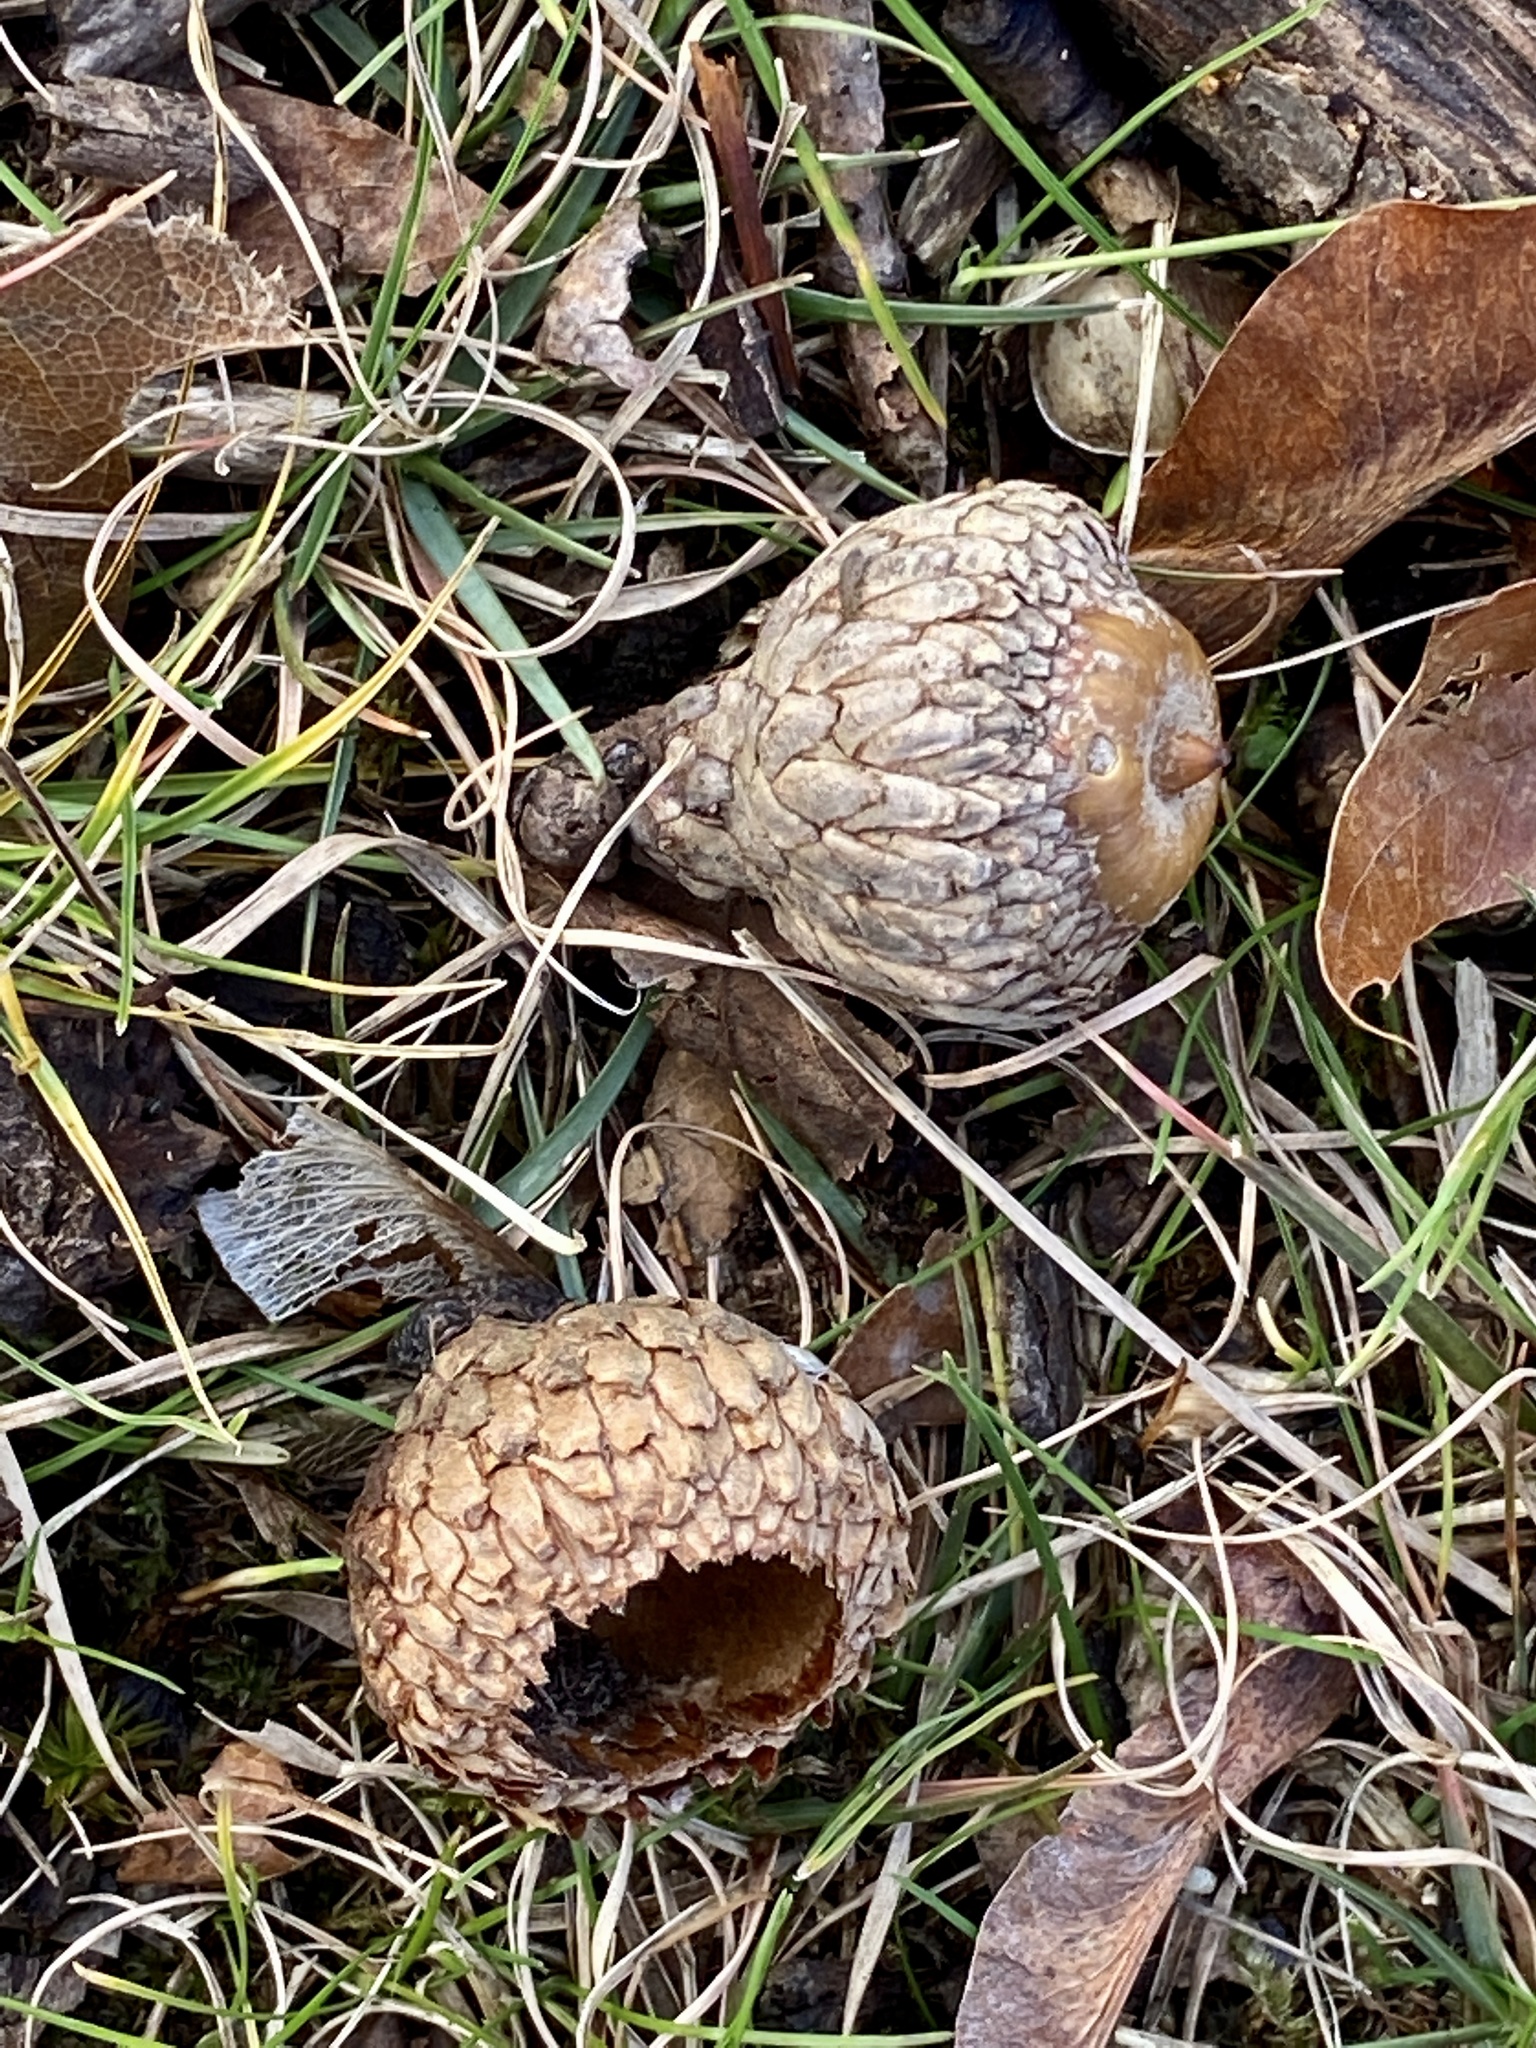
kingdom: Plantae
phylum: Tracheophyta
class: Magnoliopsida
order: Fagales
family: Fagaceae
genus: Quercus
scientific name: Quercus velutina
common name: Black oak
